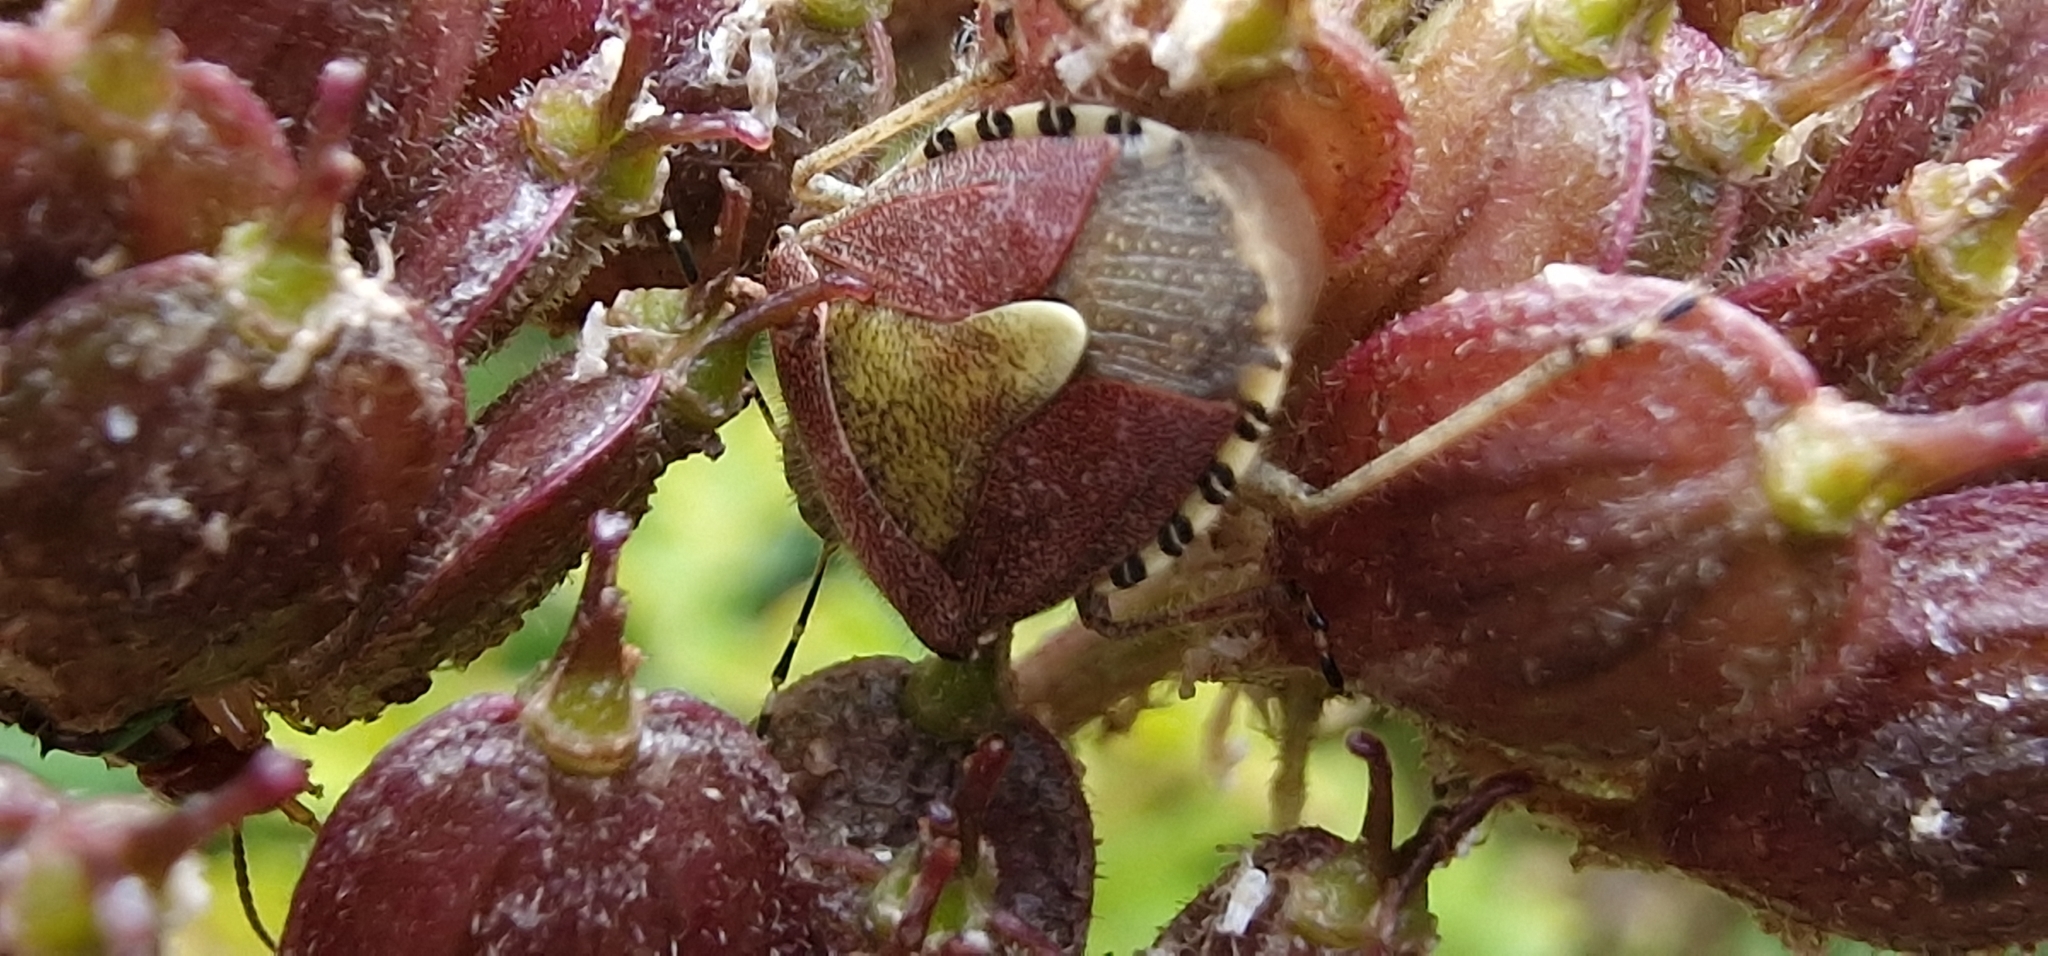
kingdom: Animalia
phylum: Arthropoda
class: Insecta
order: Hemiptera
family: Pentatomidae
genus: Dolycoris
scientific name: Dolycoris baccarum
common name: Sloe bug
